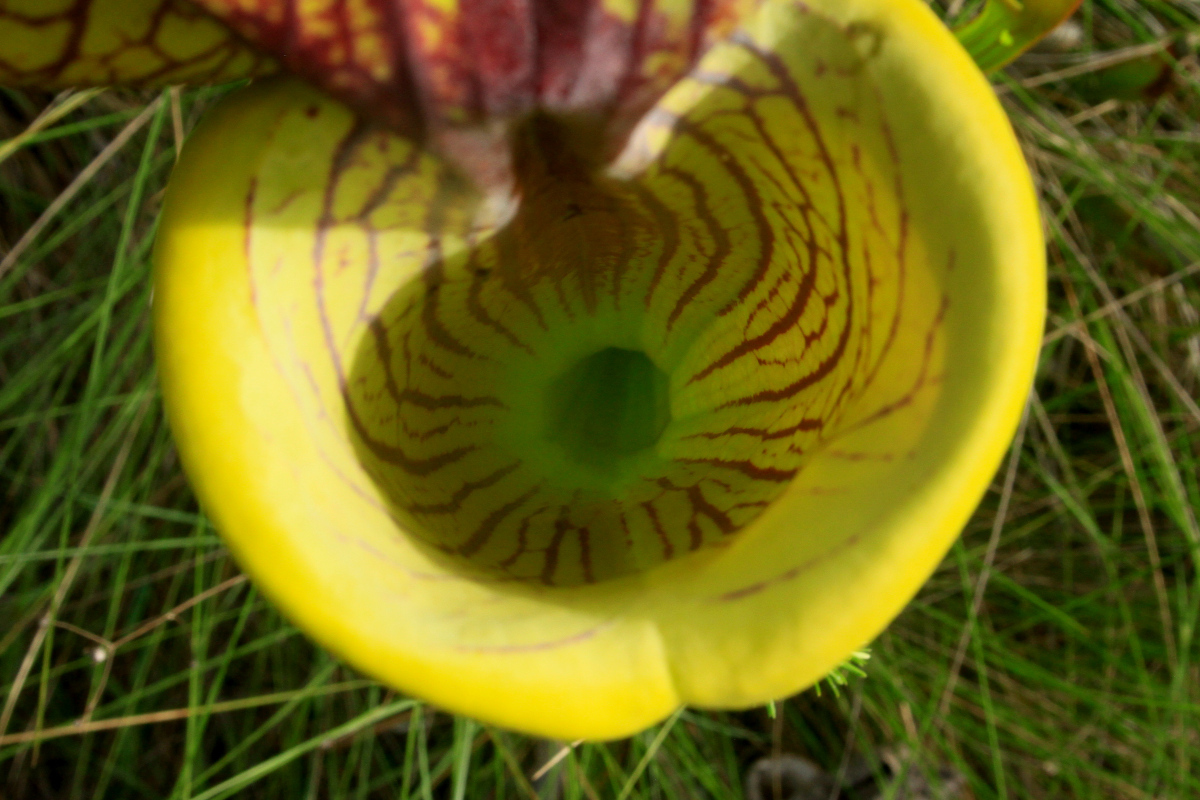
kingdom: Plantae
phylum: Tracheophyta
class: Magnoliopsida
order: Ericales
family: Sarraceniaceae
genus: Sarracenia
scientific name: Sarracenia flava
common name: Trumpets
